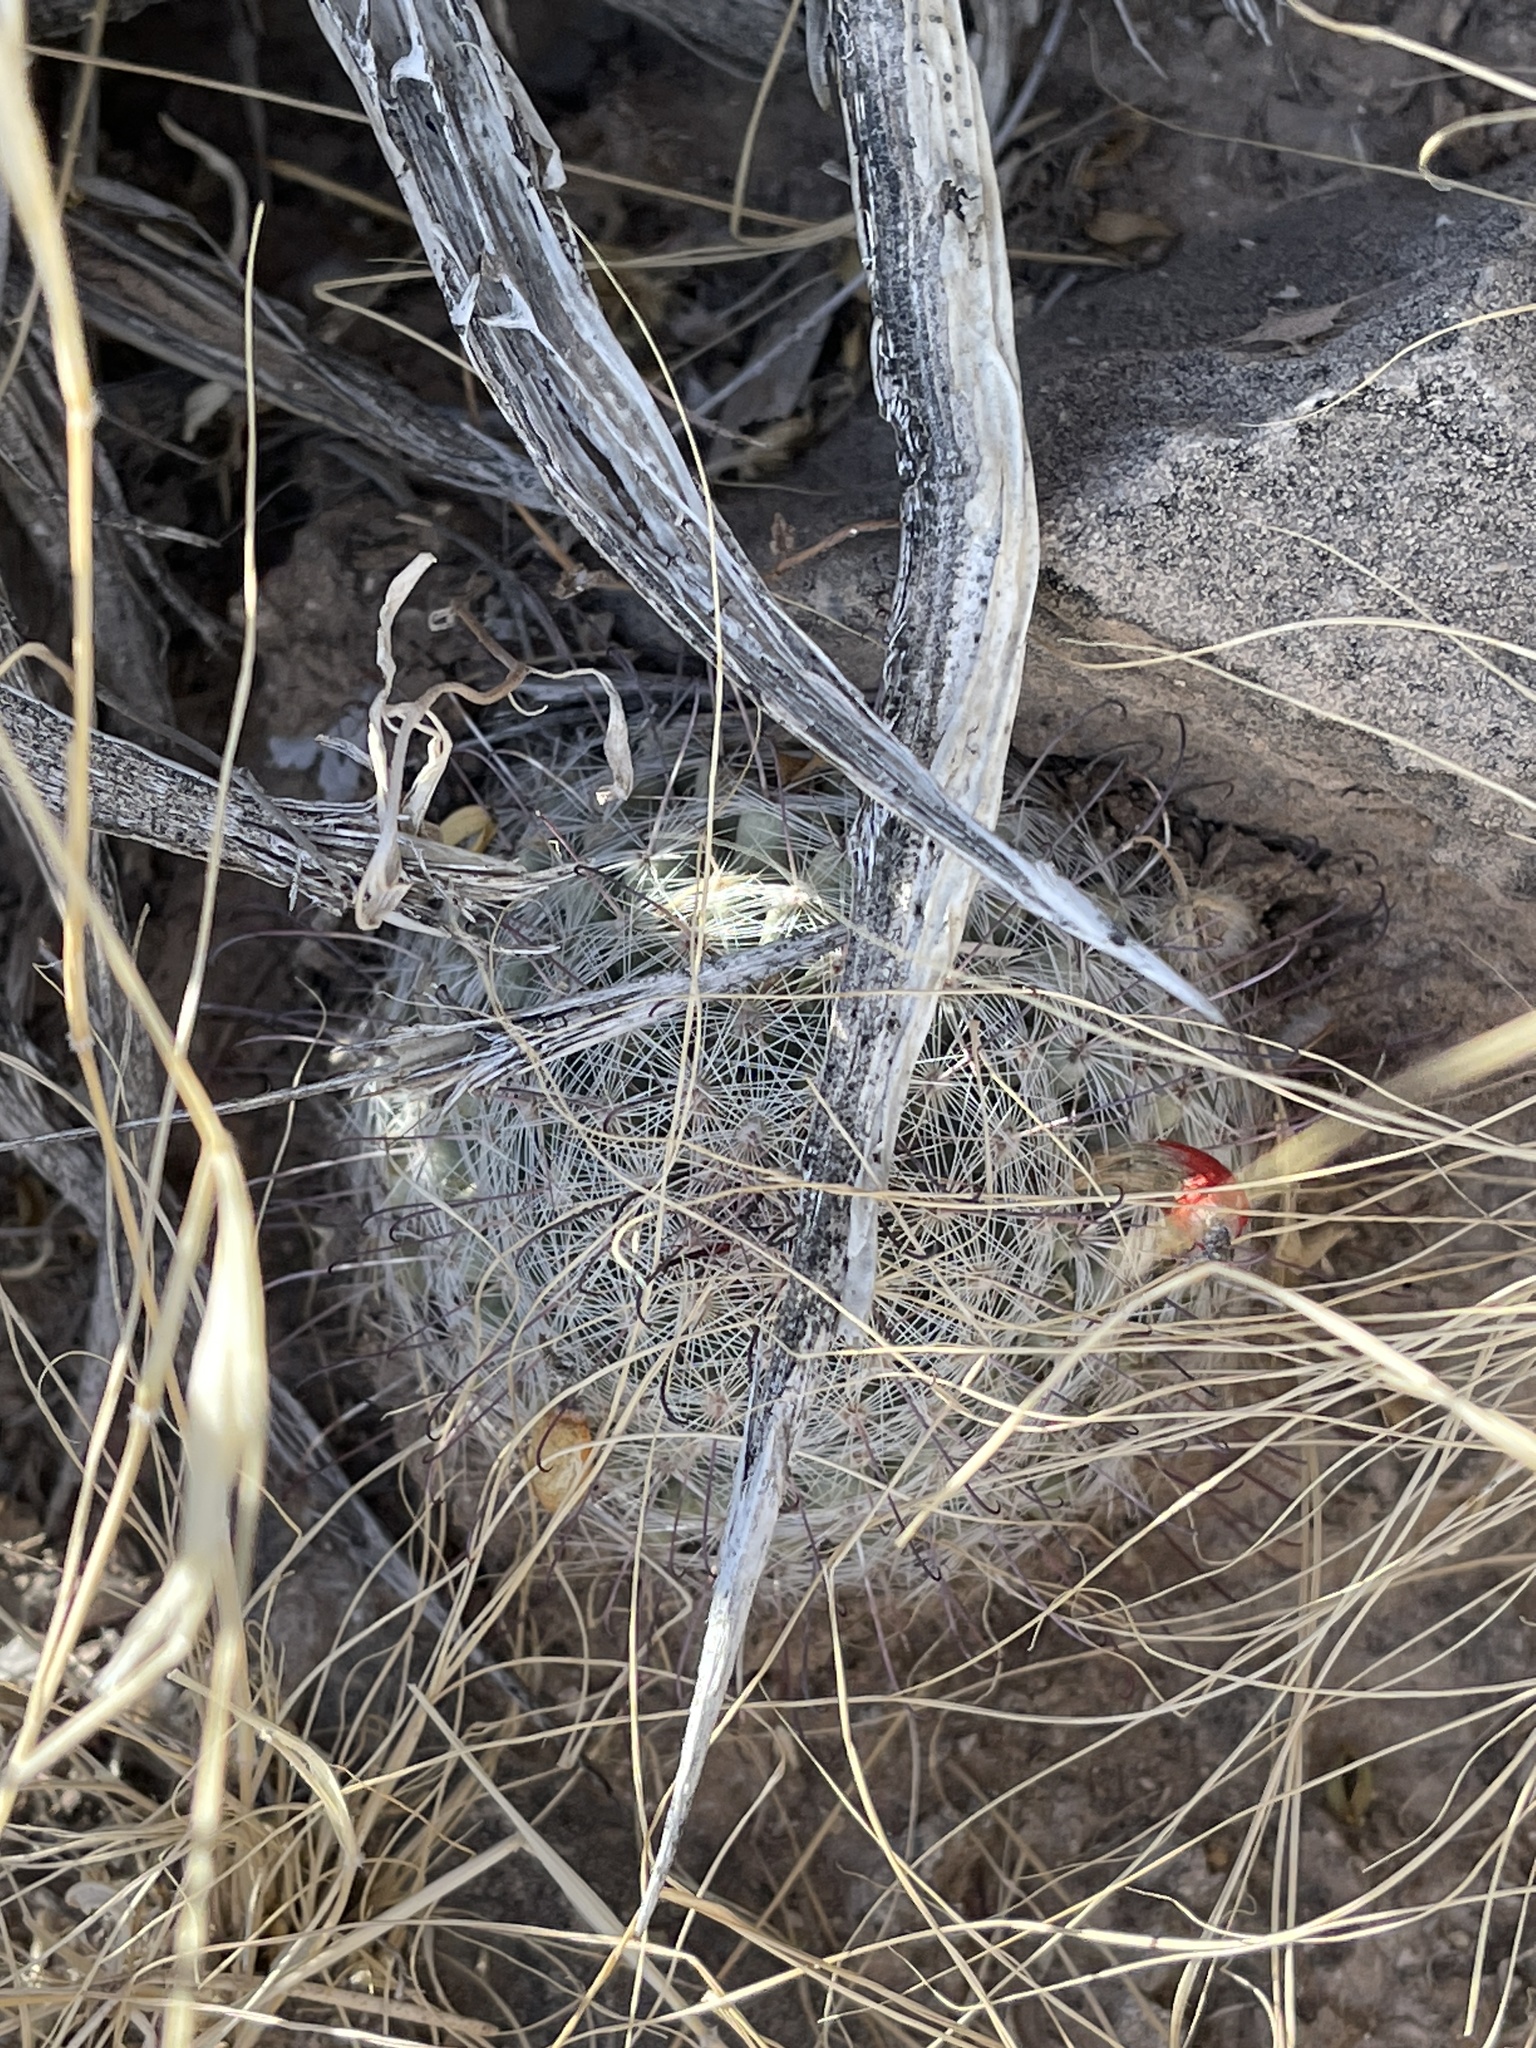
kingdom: Plantae
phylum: Tracheophyta
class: Magnoliopsida
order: Caryophyllales
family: Cactaceae
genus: Cochemiea
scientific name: Cochemiea grahamii
